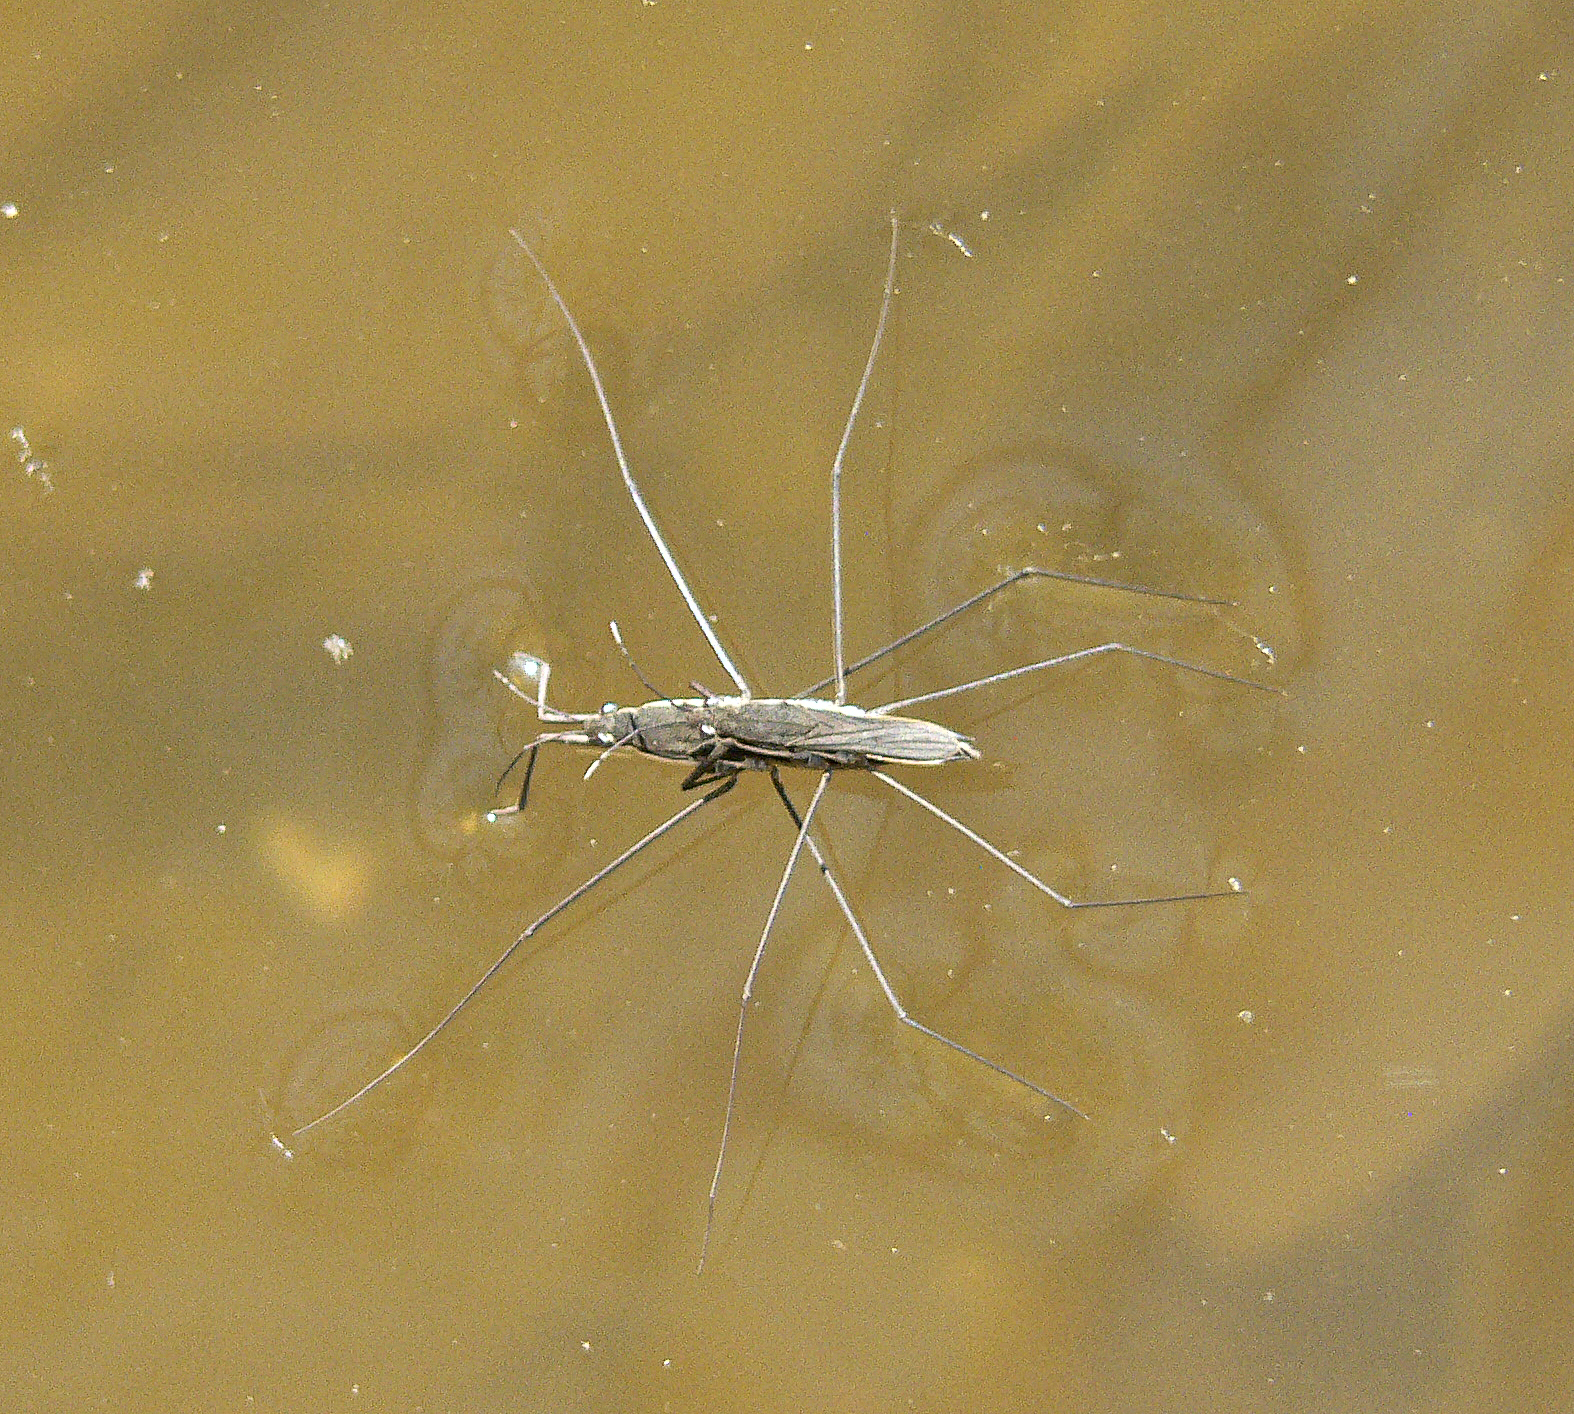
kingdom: Animalia
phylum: Arthropoda
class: Insecta
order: Hemiptera
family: Gerridae
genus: Aquarius
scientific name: Aquarius paludum
